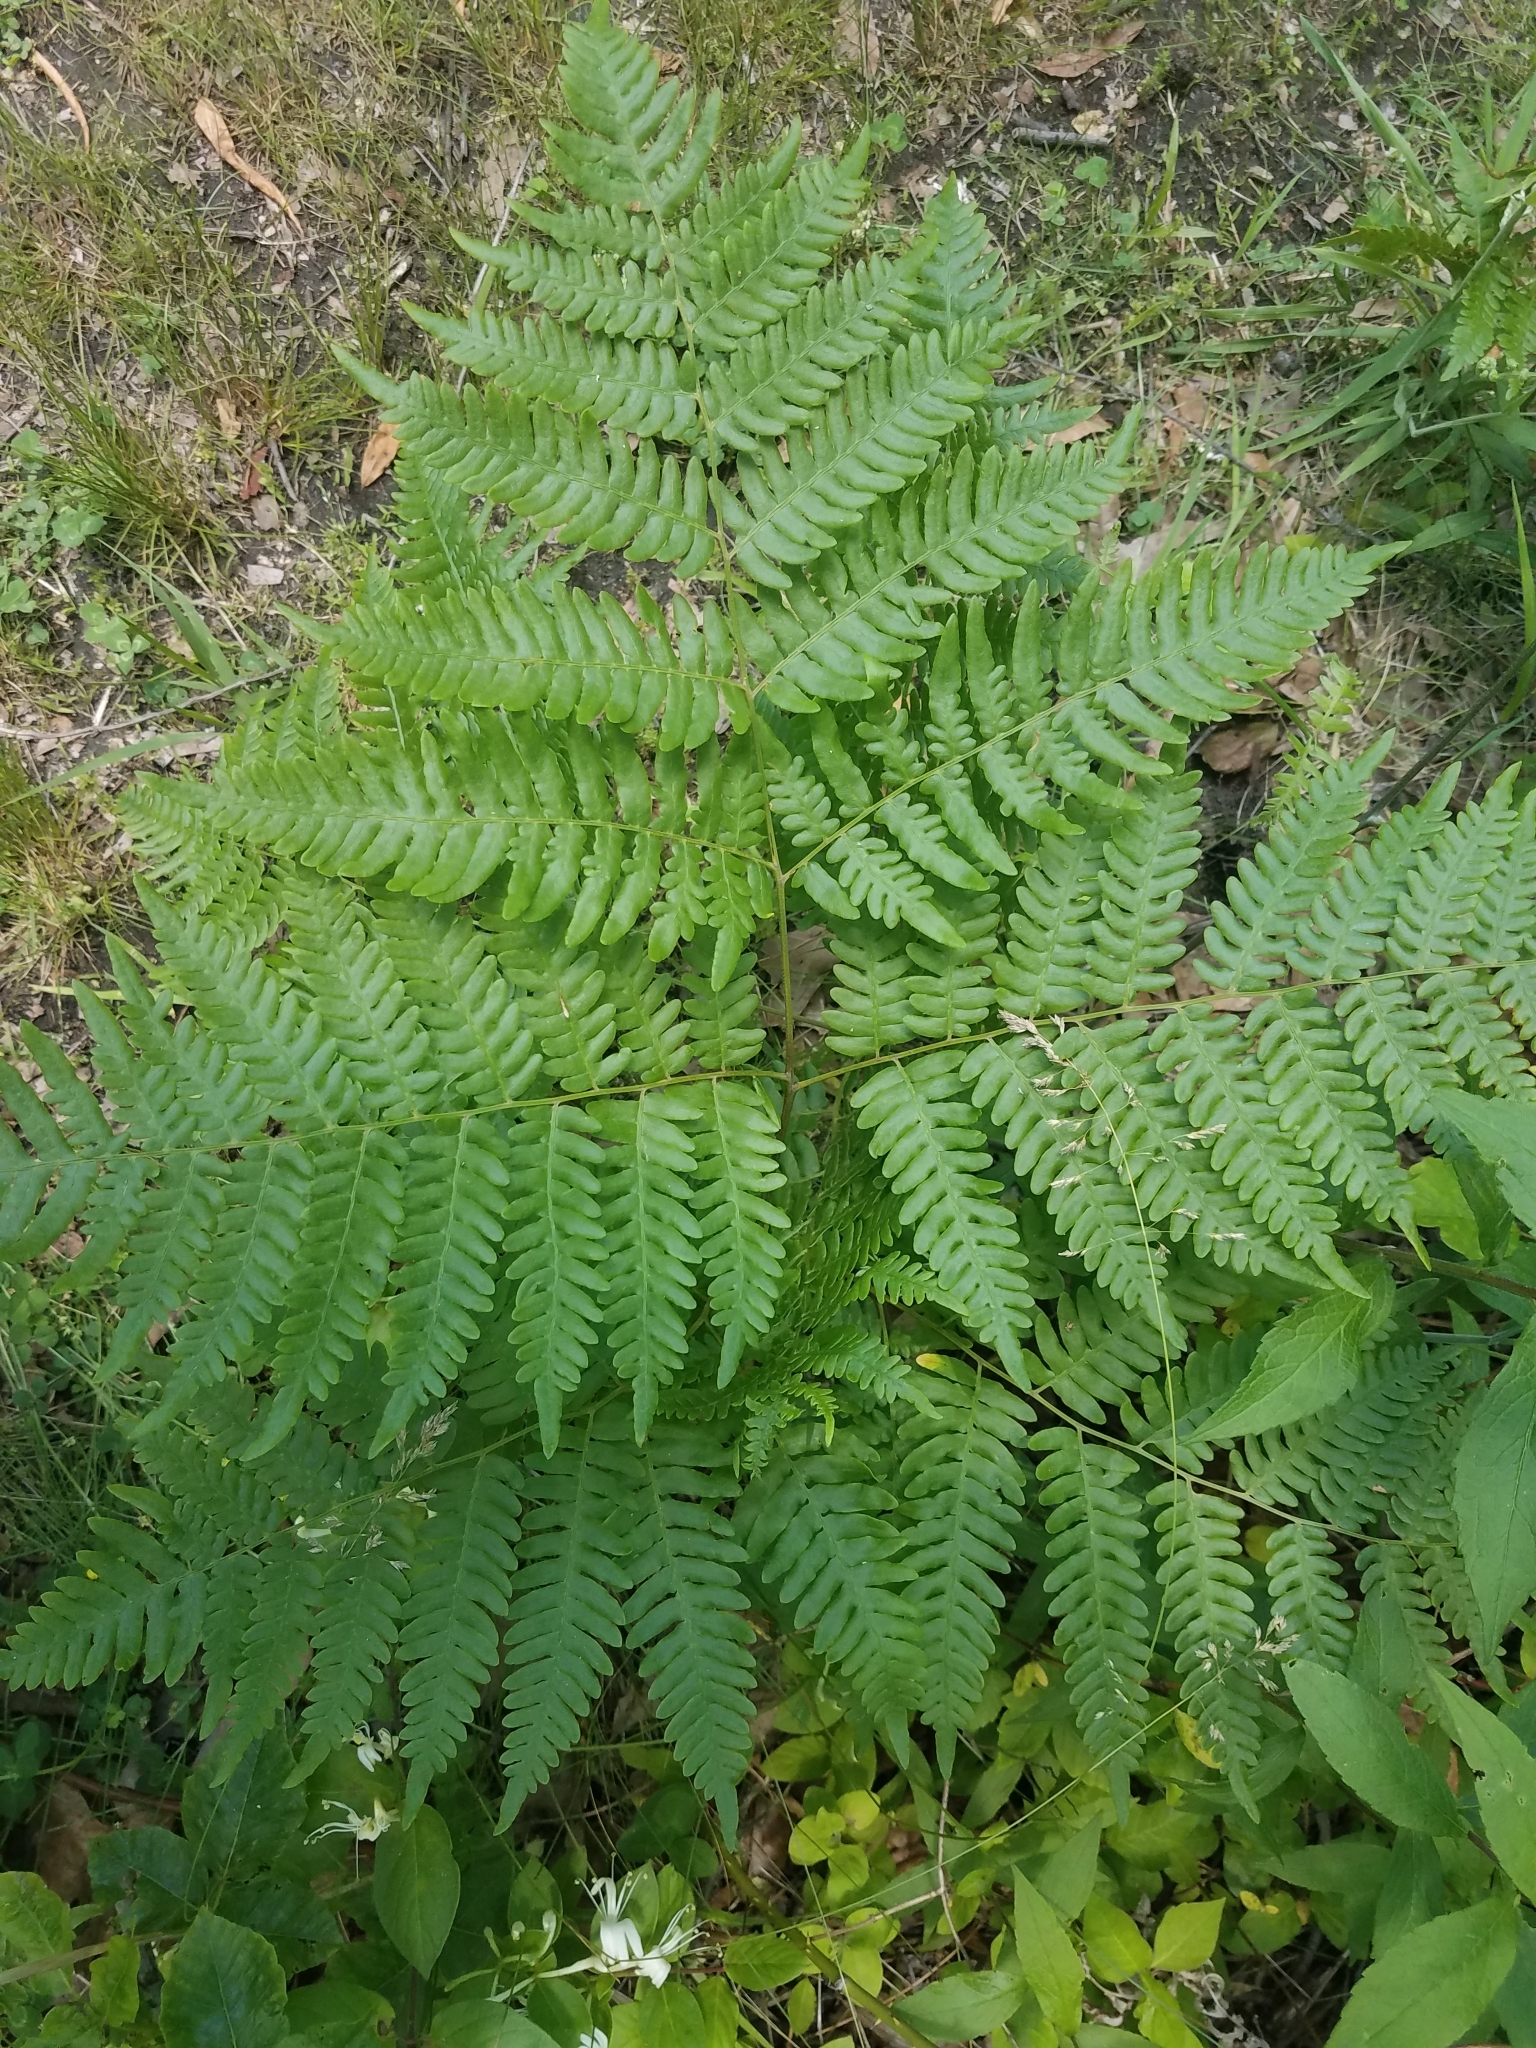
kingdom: Plantae
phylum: Tracheophyta
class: Polypodiopsida
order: Polypodiales
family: Dennstaedtiaceae
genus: Pteridium
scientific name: Pteridium aquilinum
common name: Bracken
